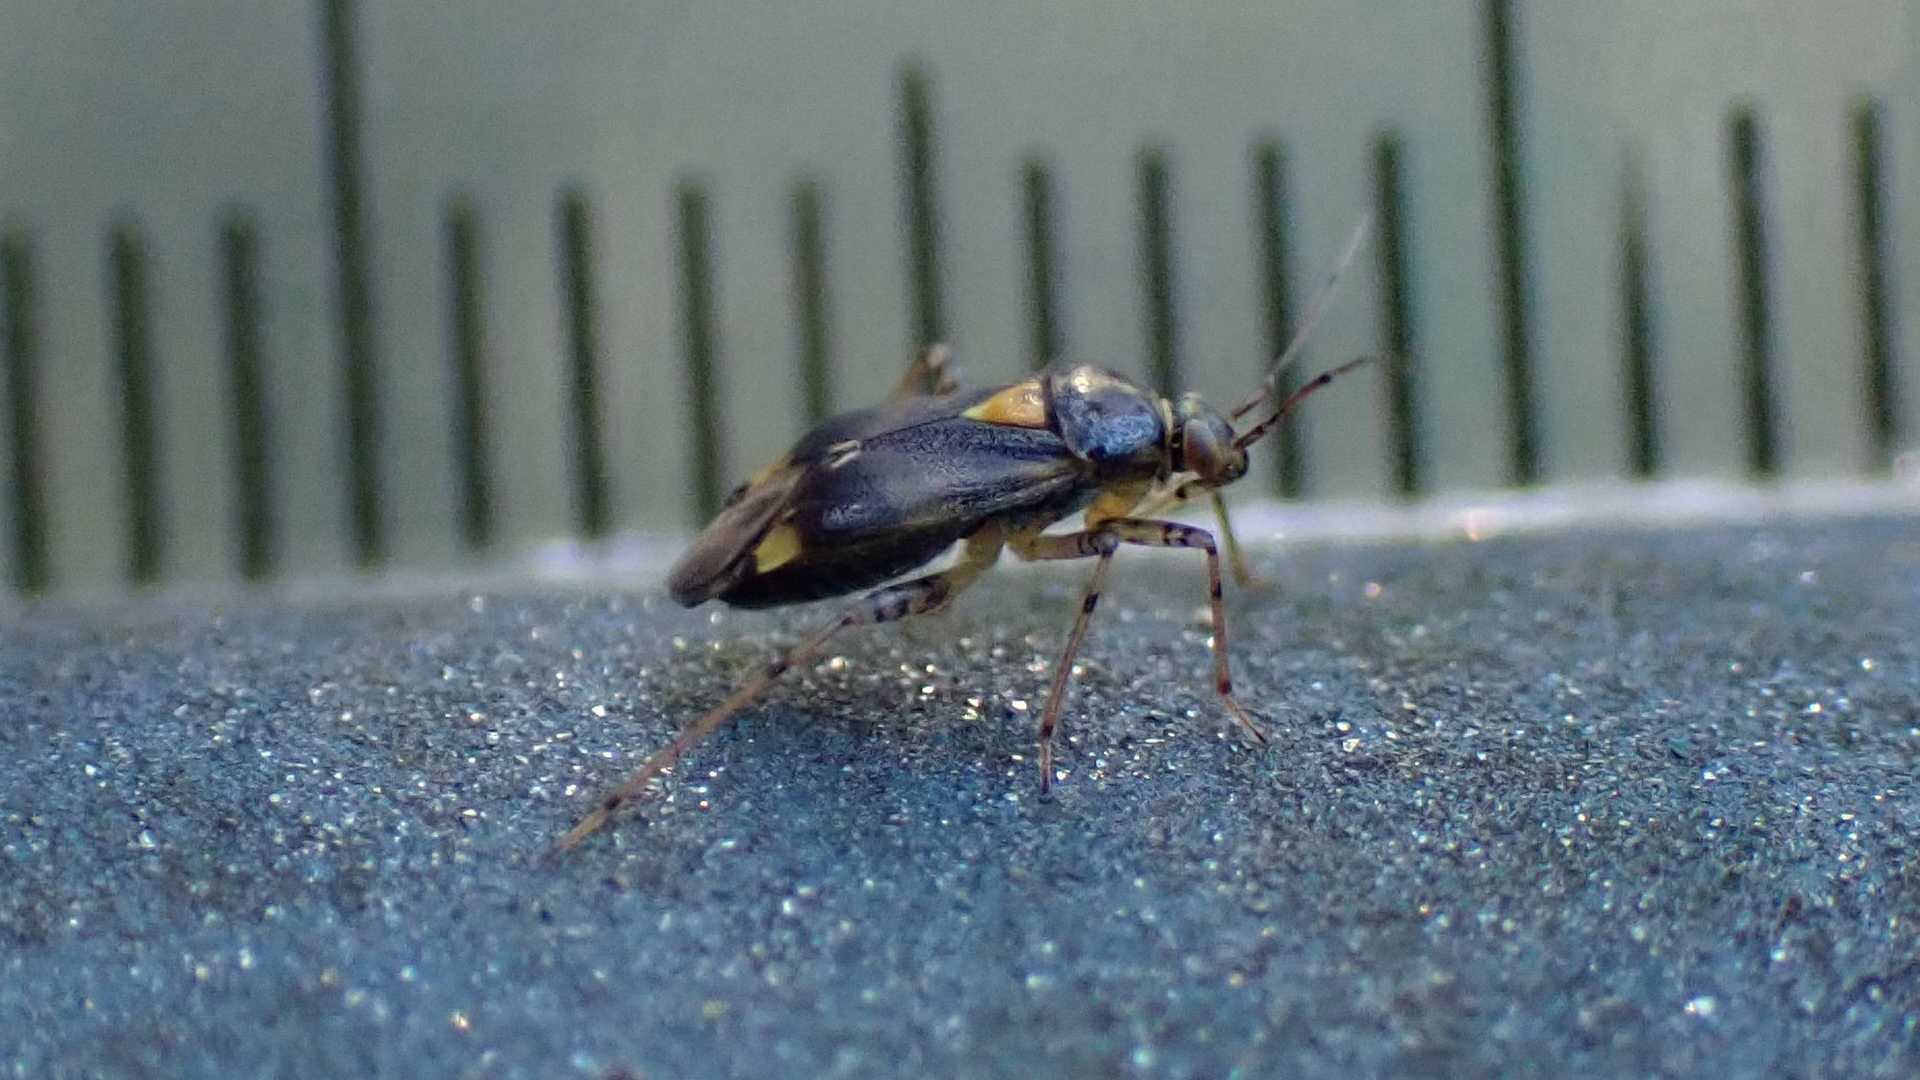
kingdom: Animalia
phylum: Arthropoda
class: Insecta
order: Hemiptera
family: Miridae
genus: Liocoris
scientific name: Liocoris tripustulatus
